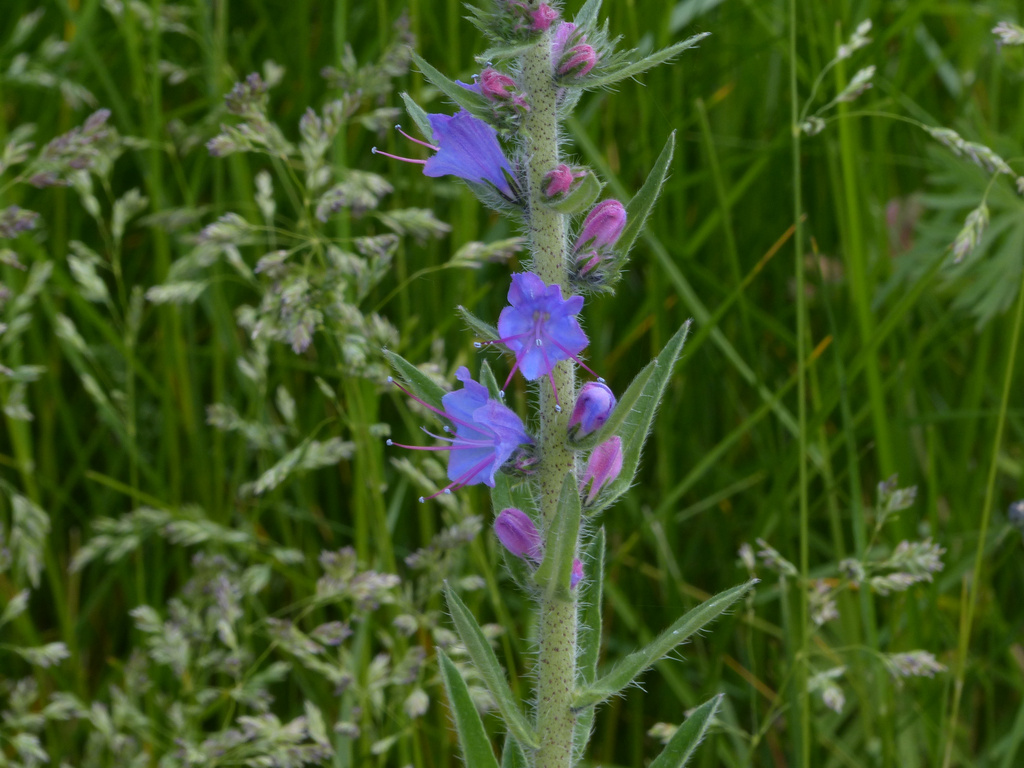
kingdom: Plantae
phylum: Tracheophyta
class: Magnoliopsida
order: Boraginales
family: Boraginaceae
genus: Echium
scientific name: Echium vulgare
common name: Common viper's bugloss
